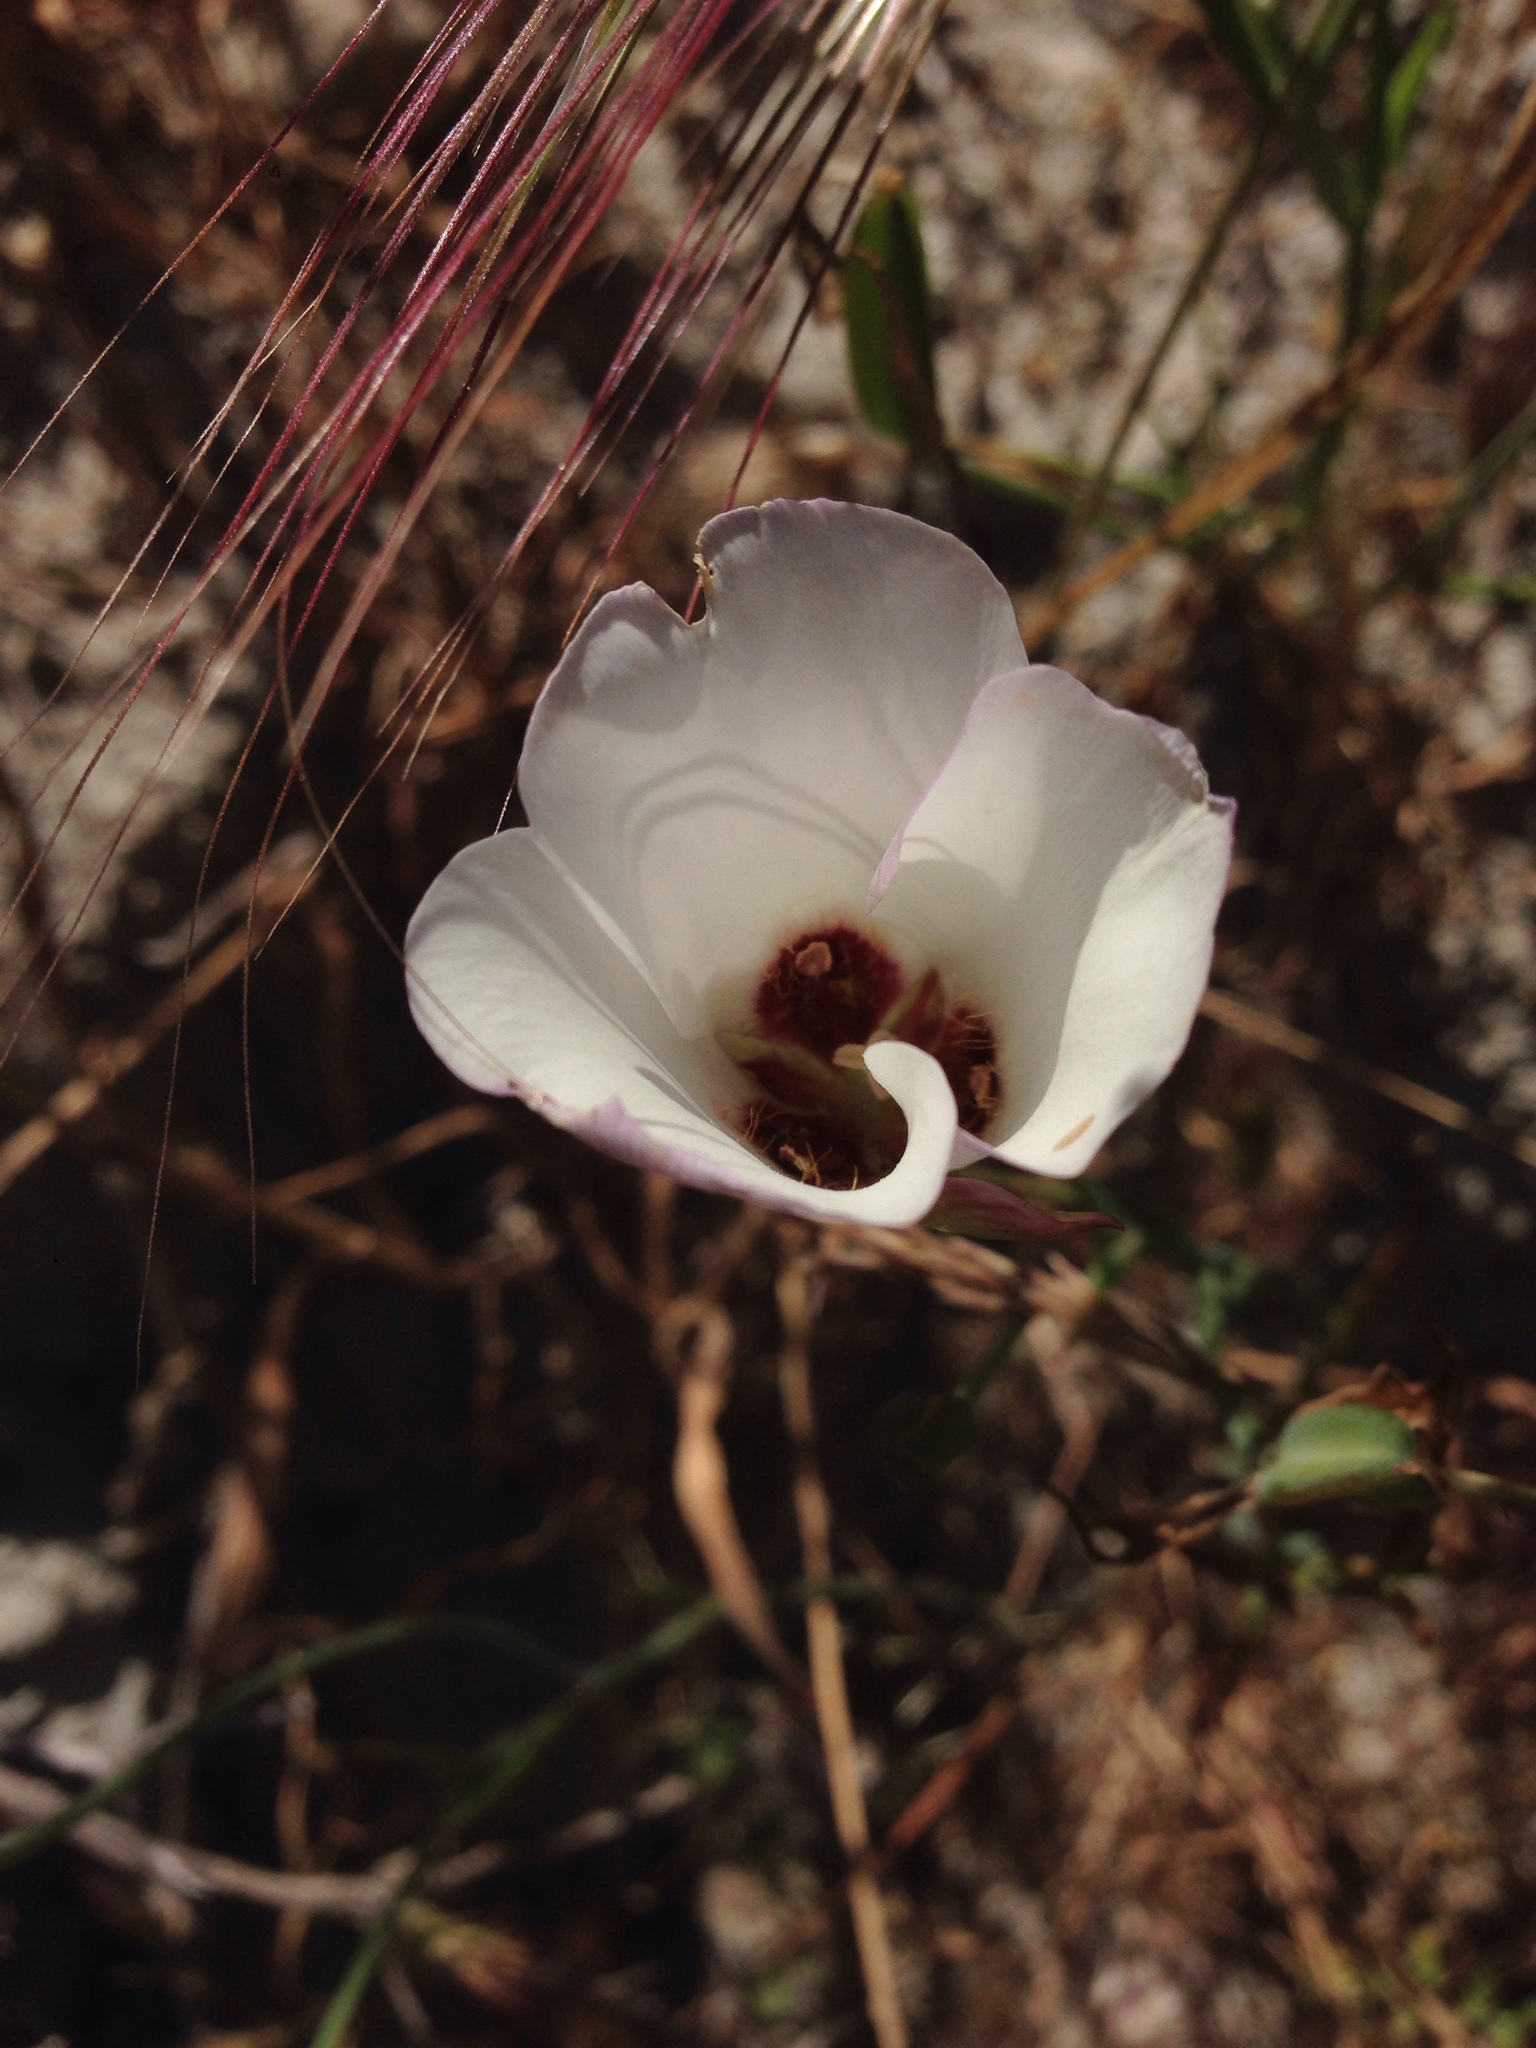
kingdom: Plantae
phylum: Tracheophyta
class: Liliopsida
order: Liliales
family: Liliaceae
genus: Calochortus
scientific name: Calochortus catalinae
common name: Catalina mariposa-lily
